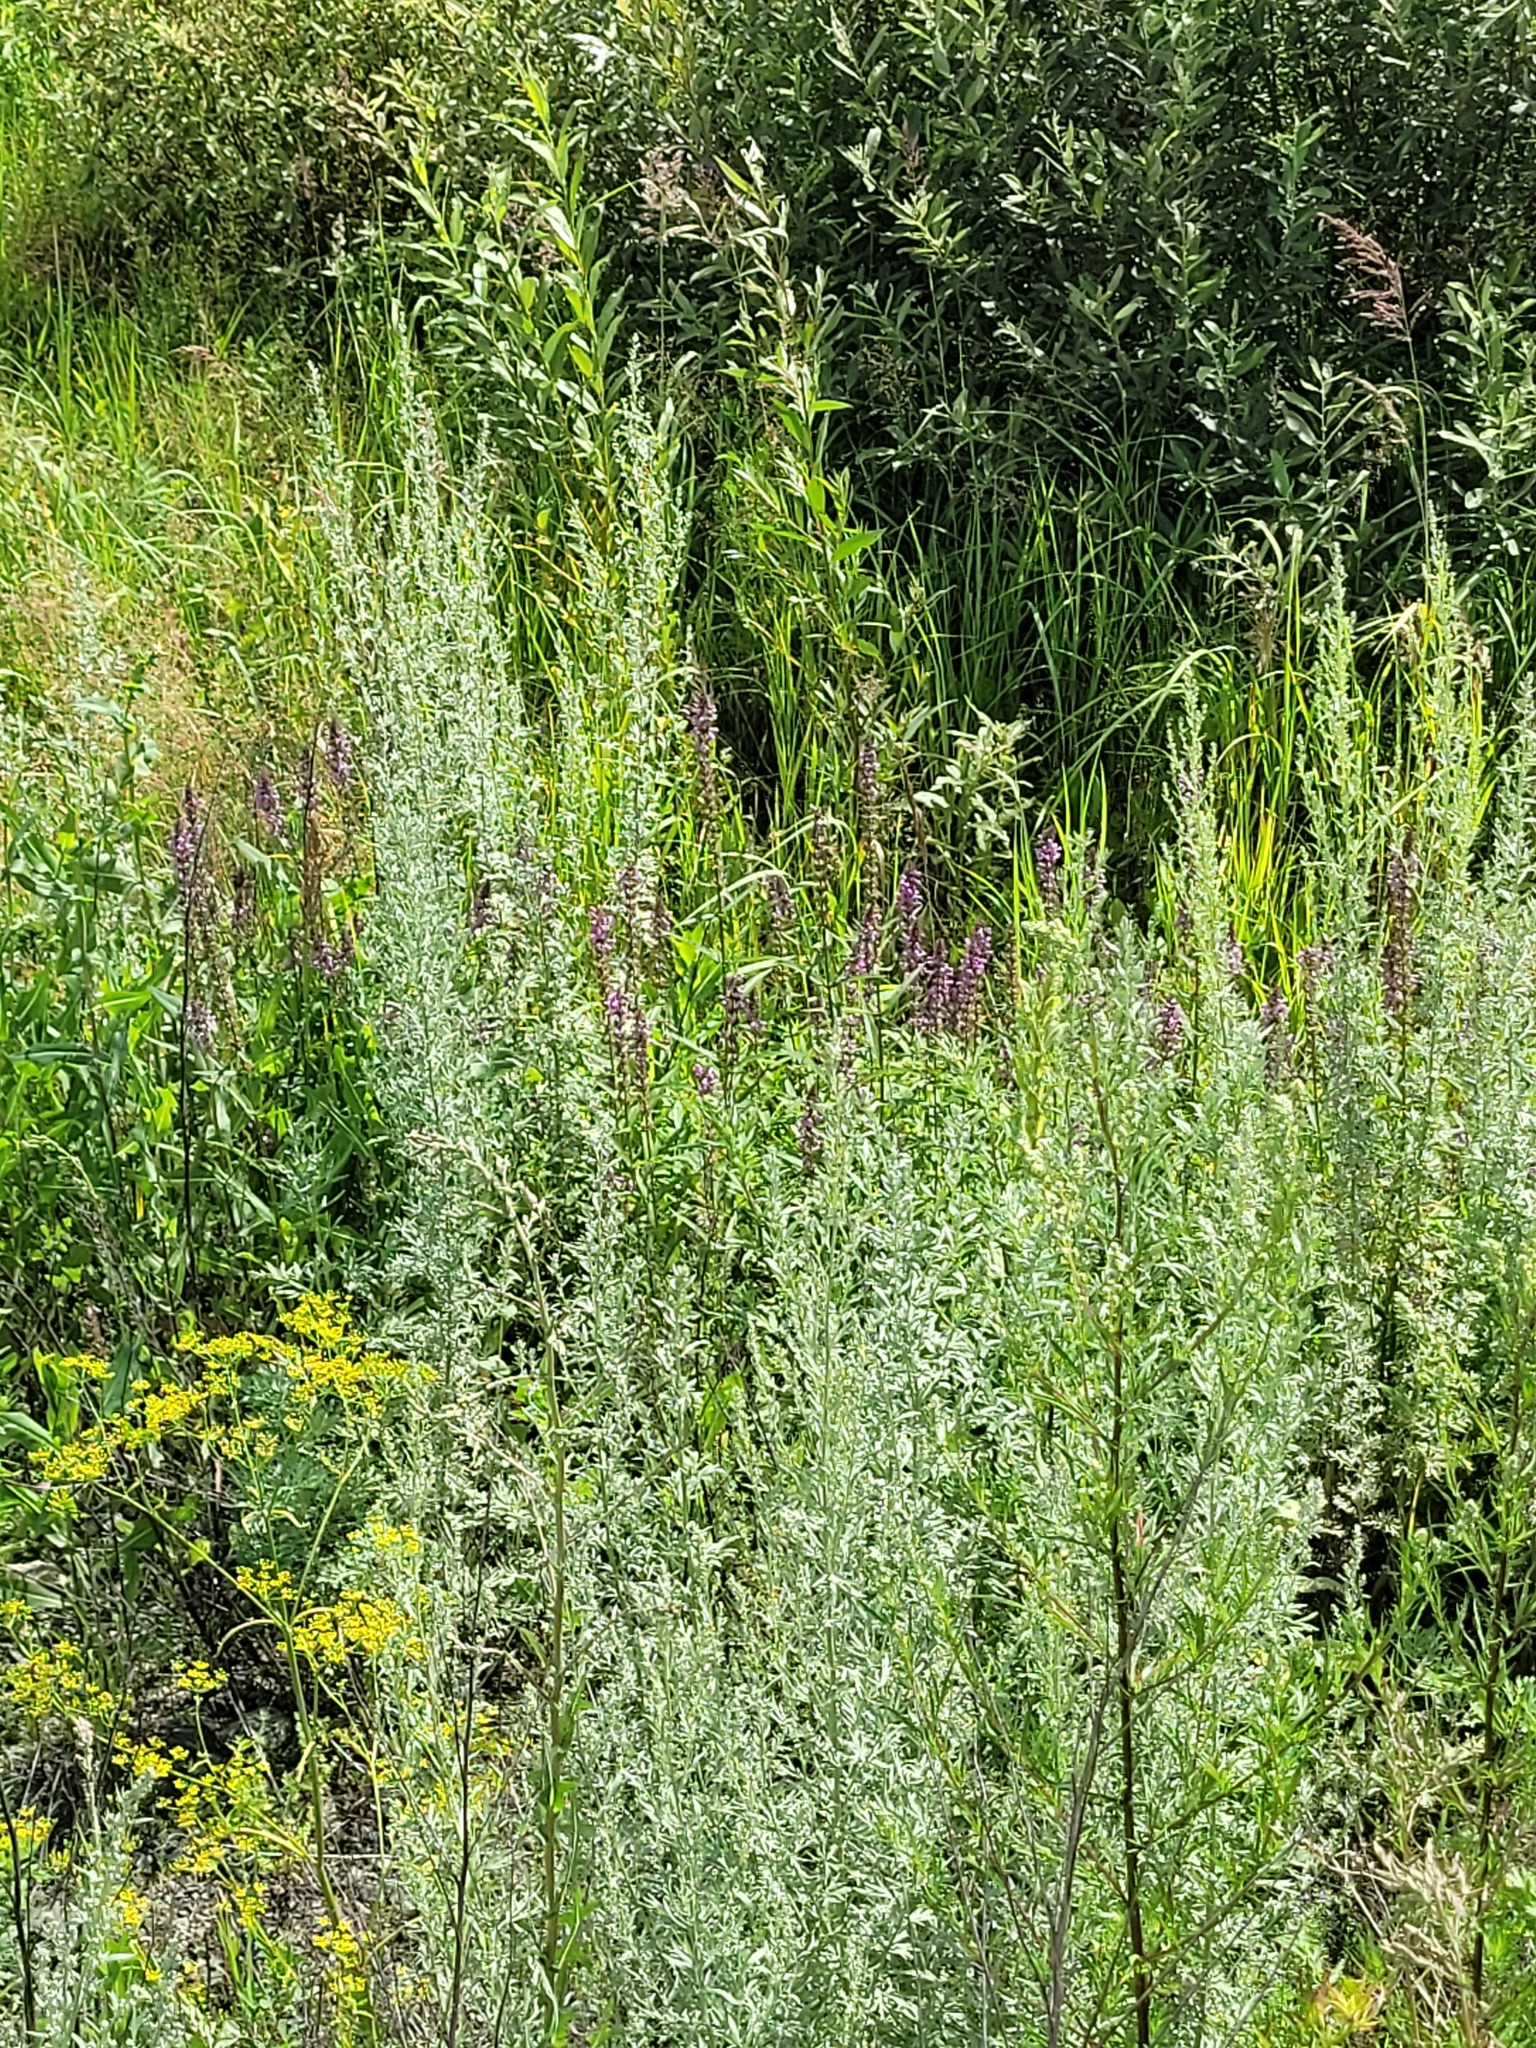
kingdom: Plantae
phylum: Tracheophyta
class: Magnoliopsida
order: Lamiales
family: Lamiaceae
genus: Stachys
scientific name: Stachys palustris
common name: Marsh woundwort
